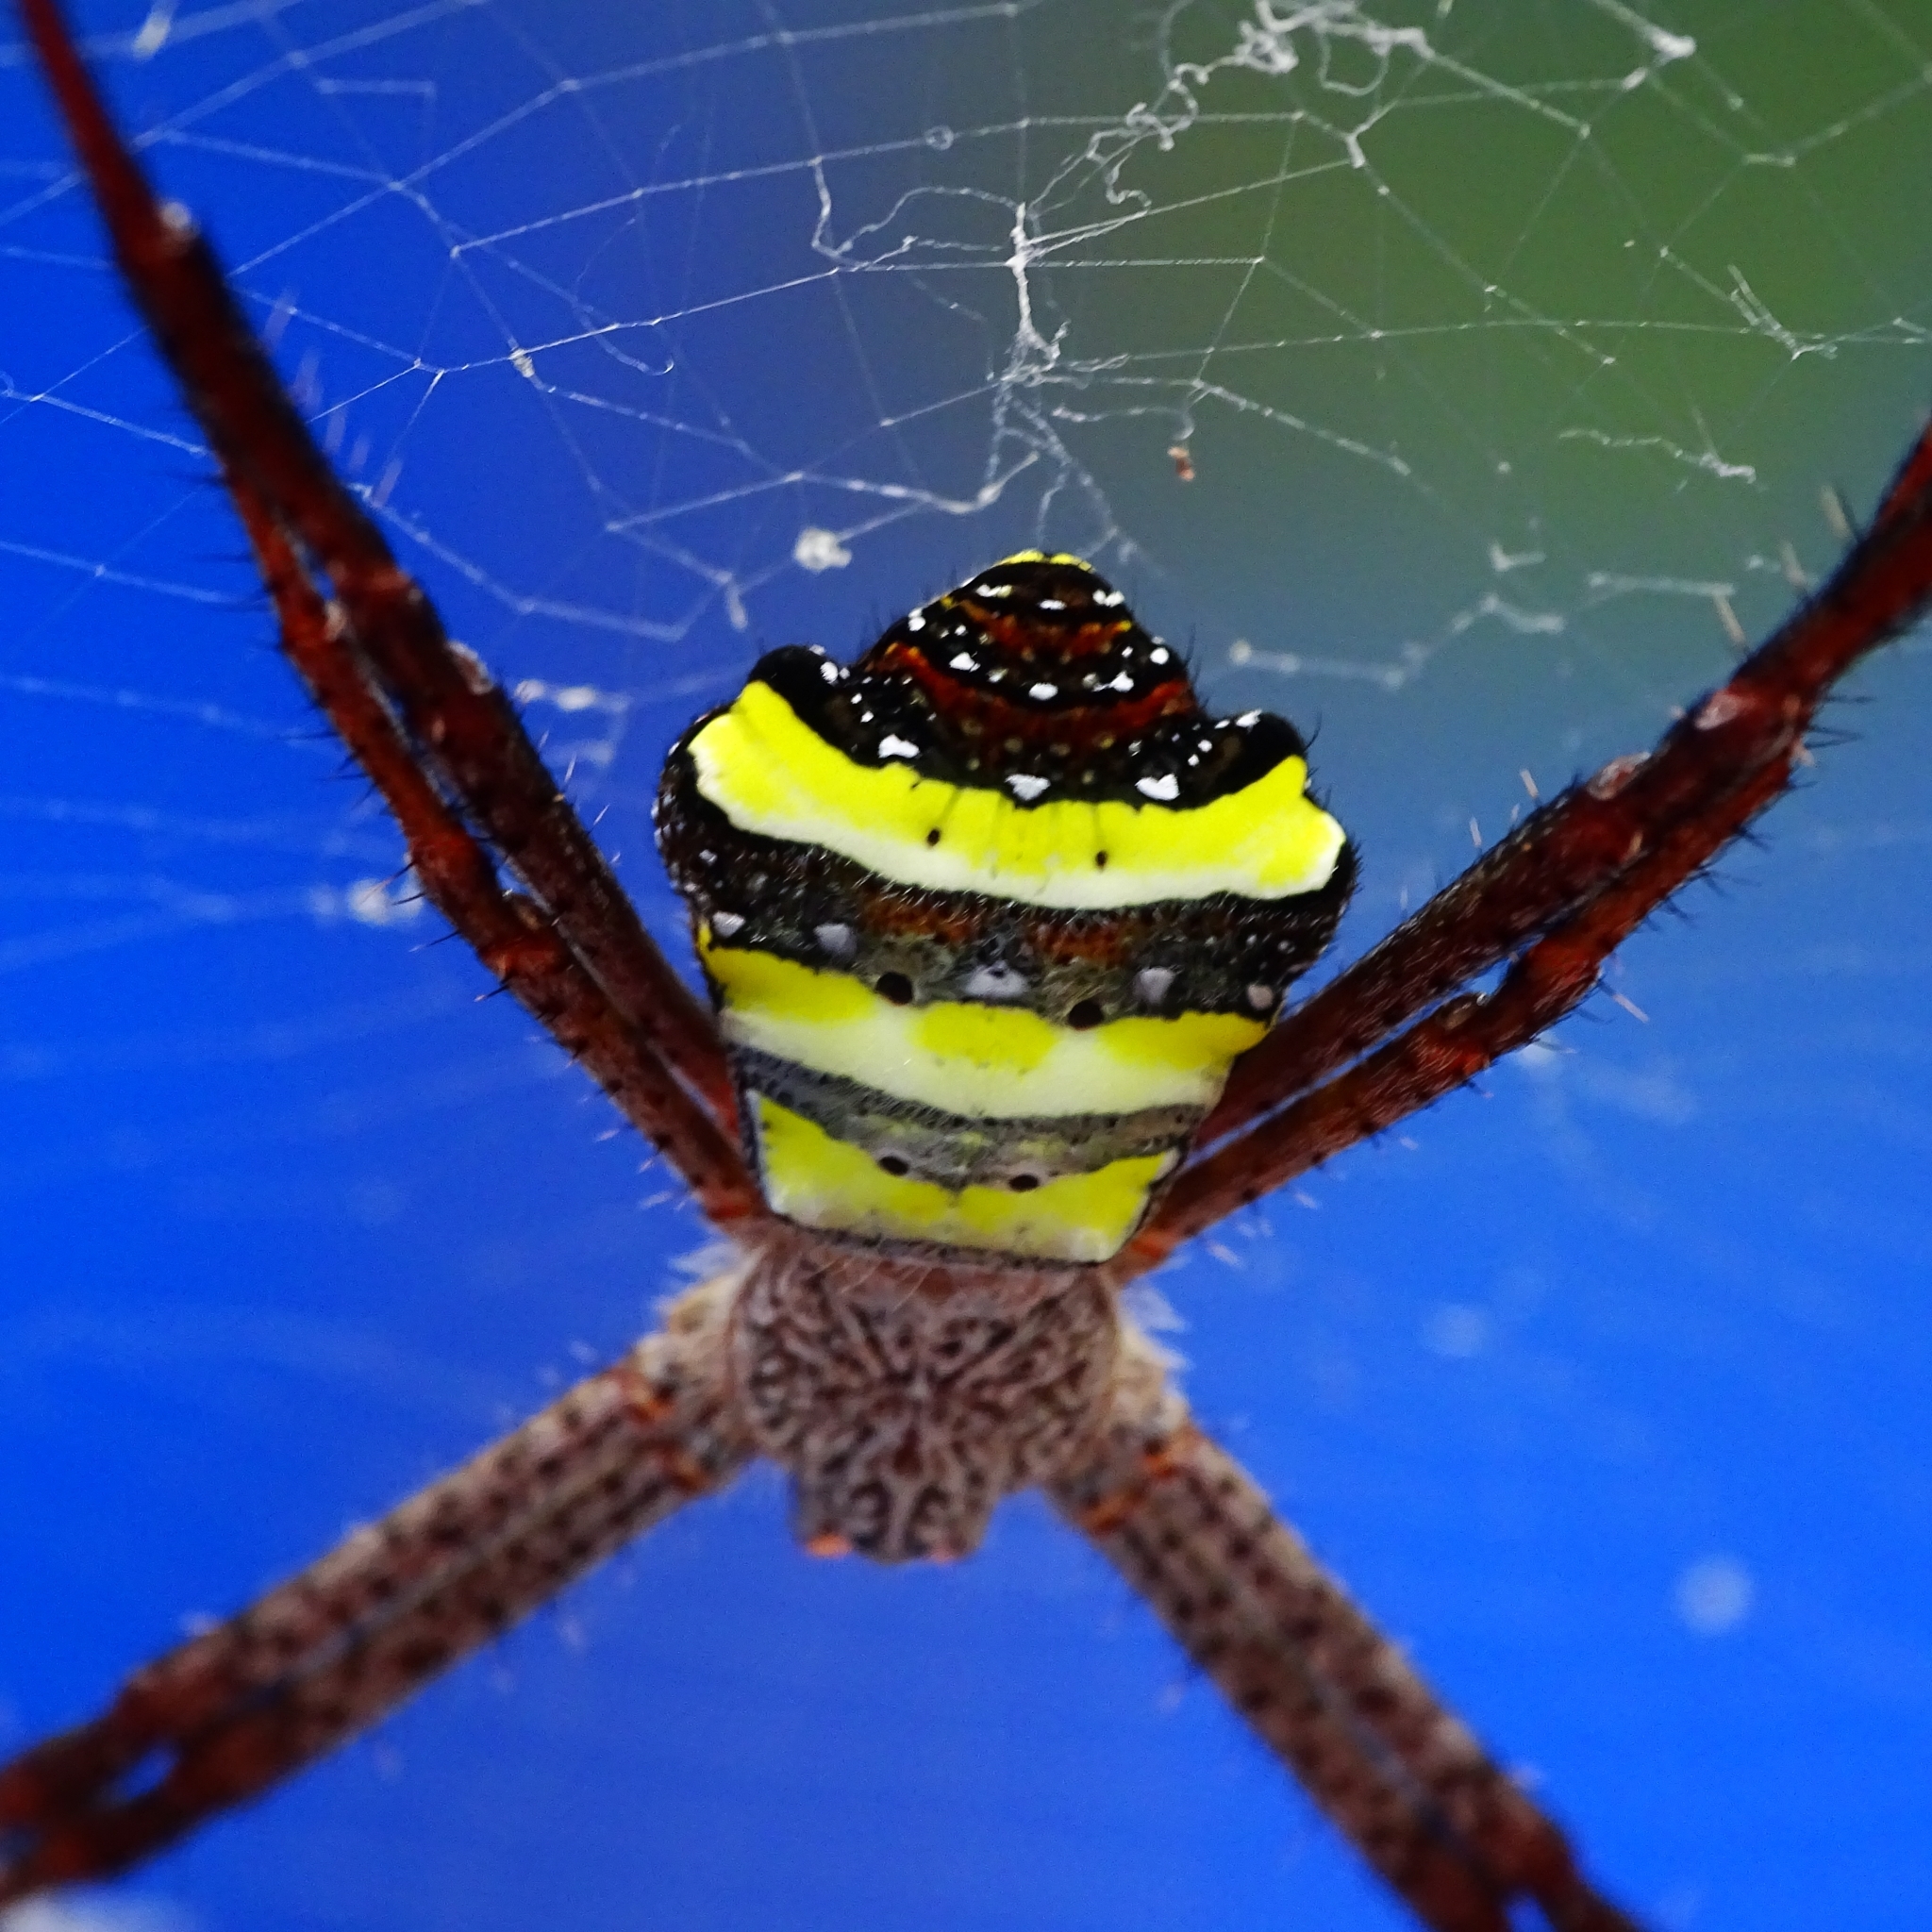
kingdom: Animalia
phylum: Arthropoda
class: Arachnida
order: Araneae
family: Araneidae
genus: Argiope
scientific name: Argiope taprobanica
